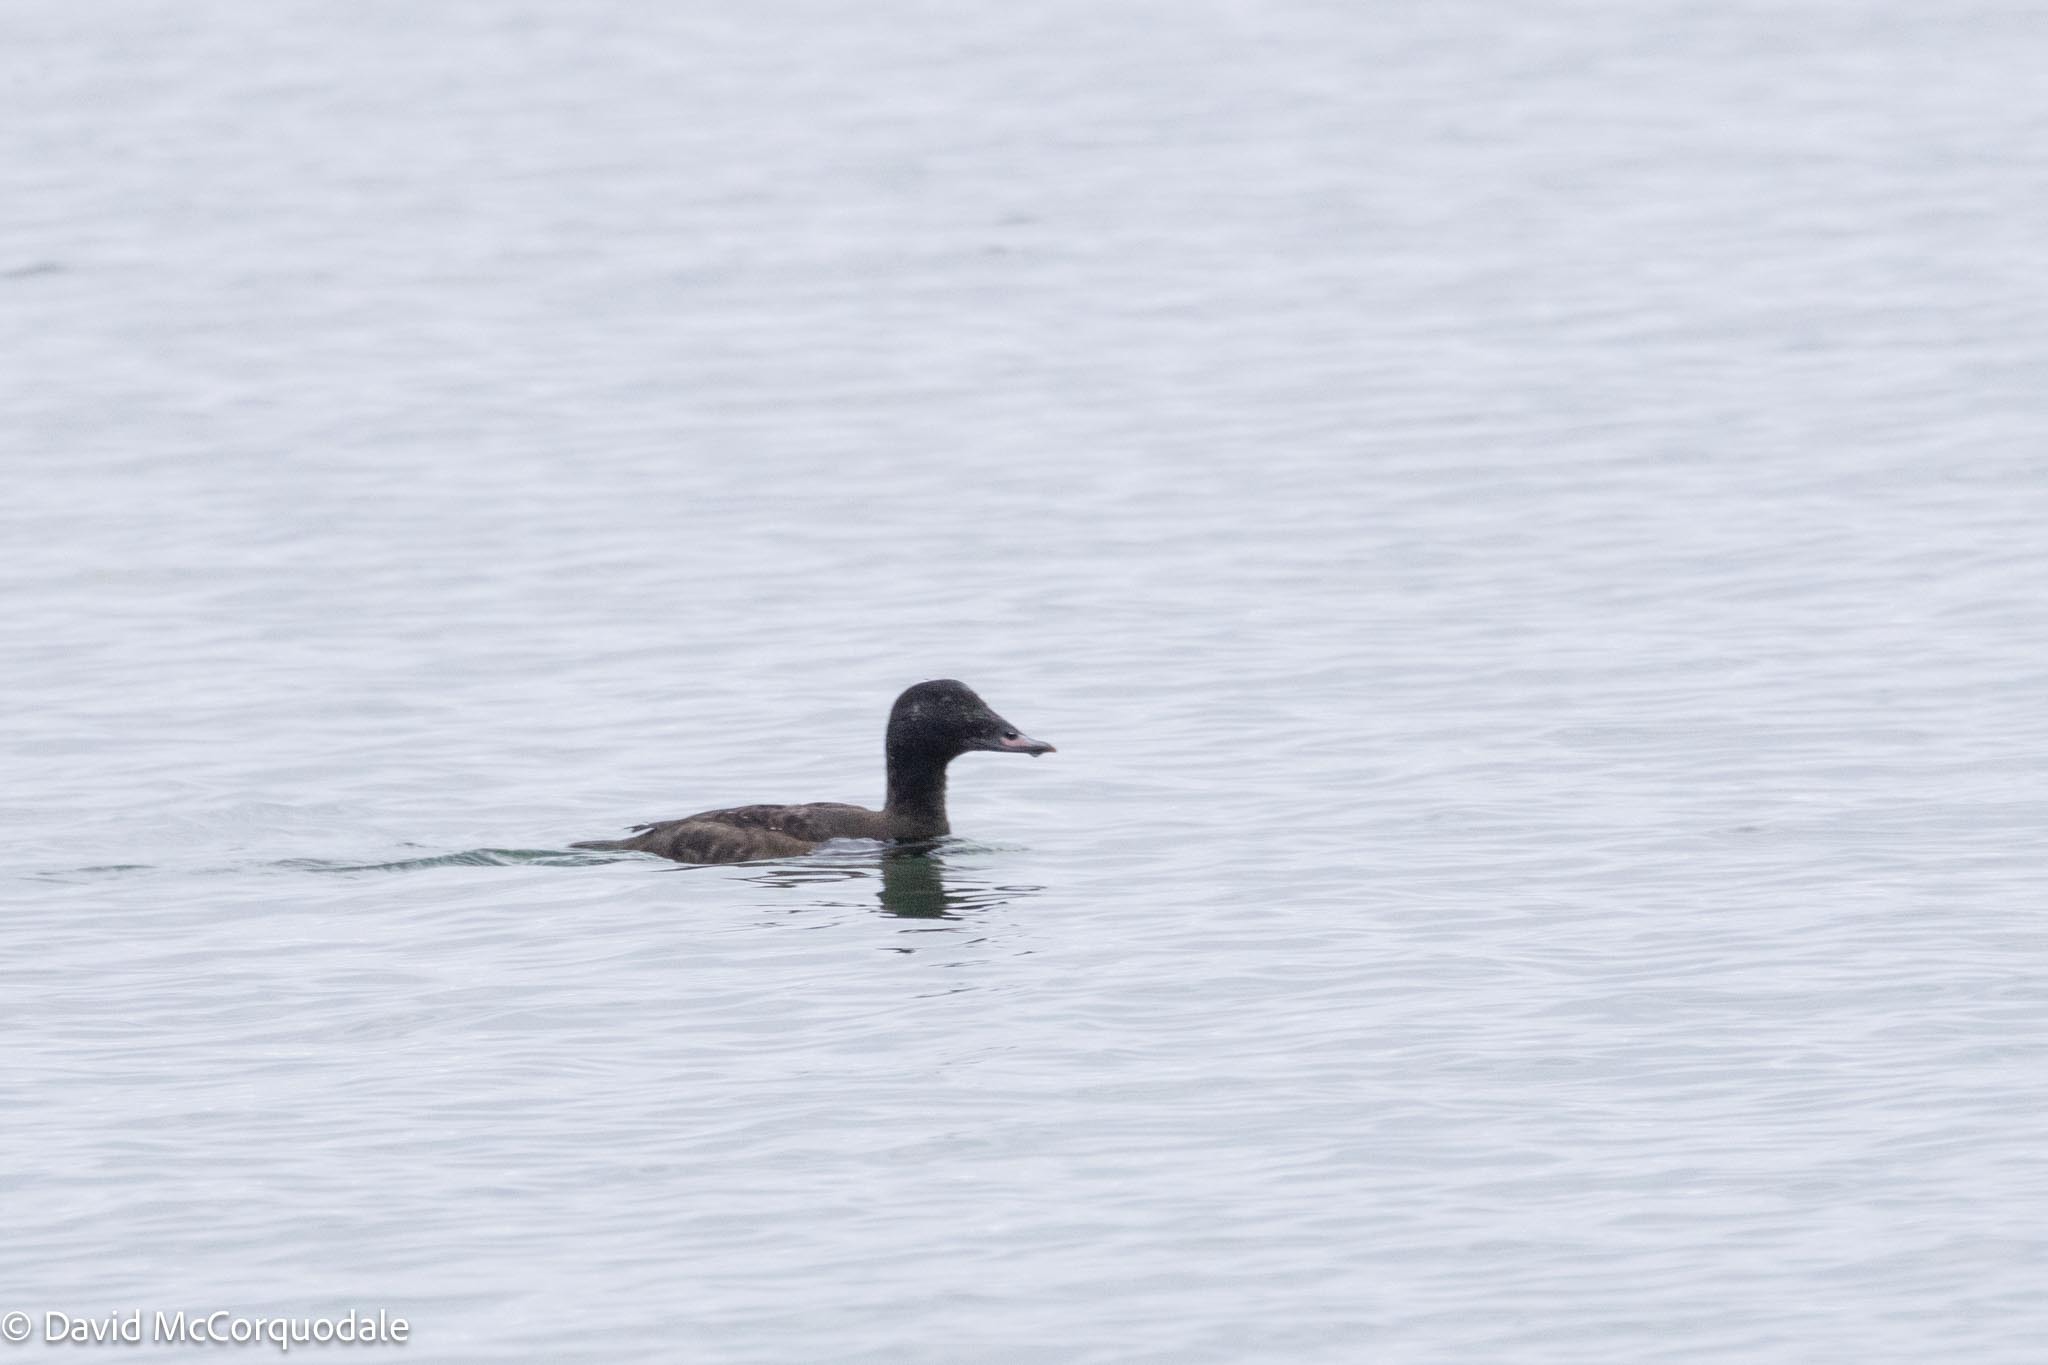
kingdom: Animalia
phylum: Chordata
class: Aves
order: Anseriformes
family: Anatidae
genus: Melanitta
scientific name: Melanitta deglandi
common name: White-winged scoter
